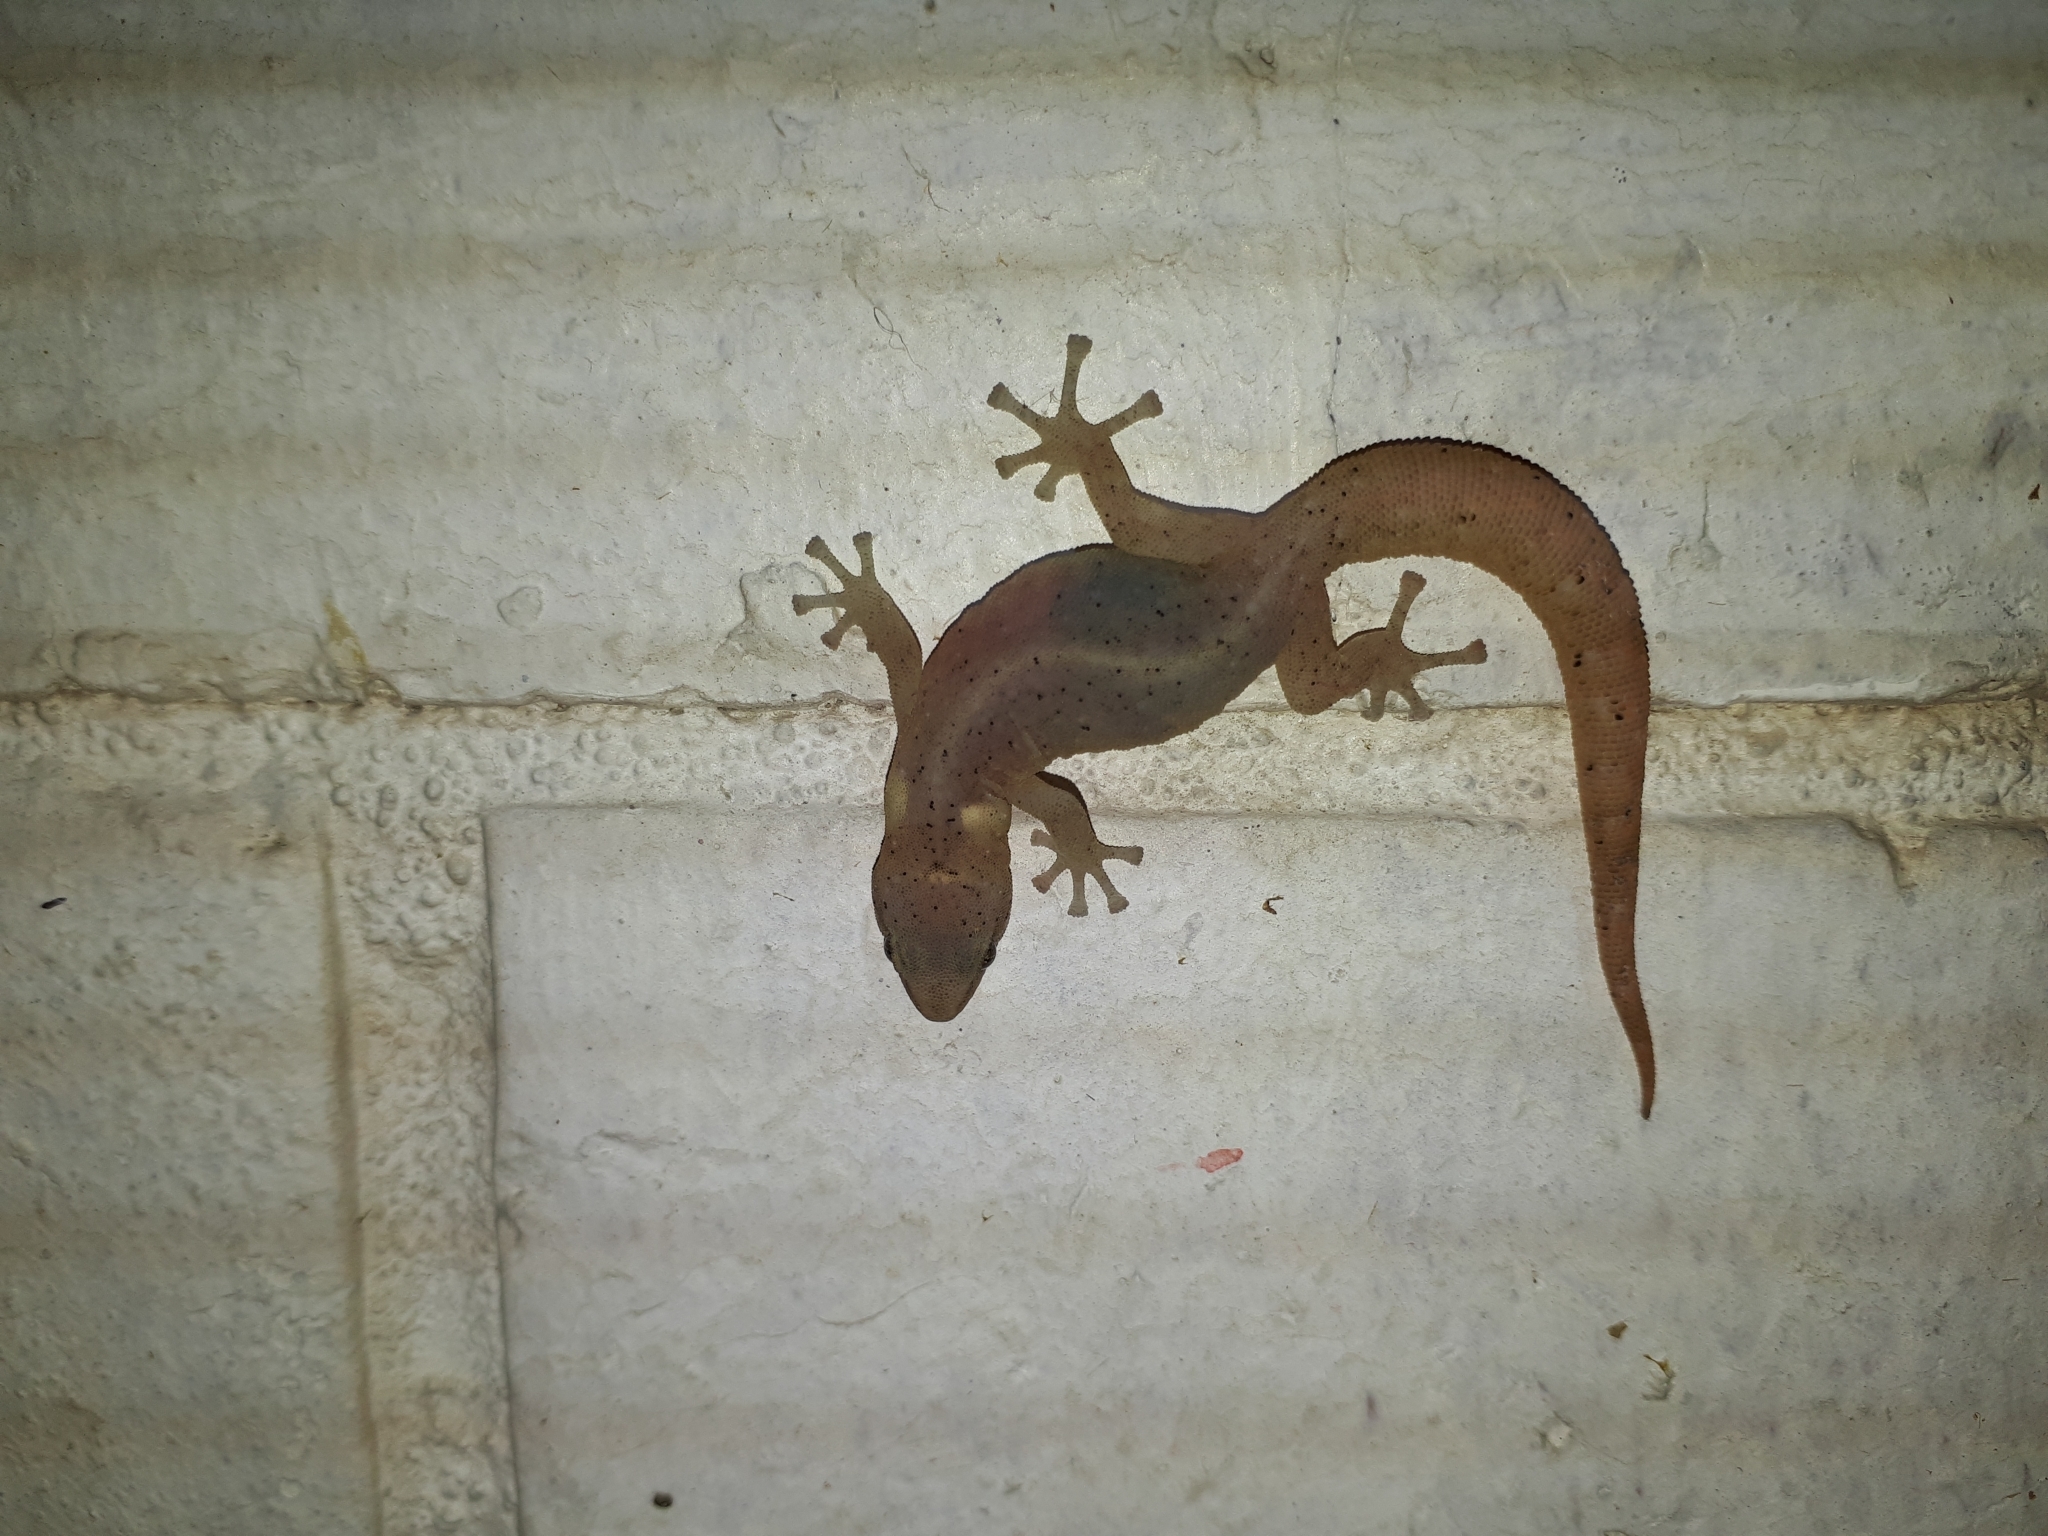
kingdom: Animalia
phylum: Chordata
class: Squamata
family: Gekkonidae
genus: Afrogecko
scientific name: Afrogecko porphyreus
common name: Marbled leaf-toed gecko
